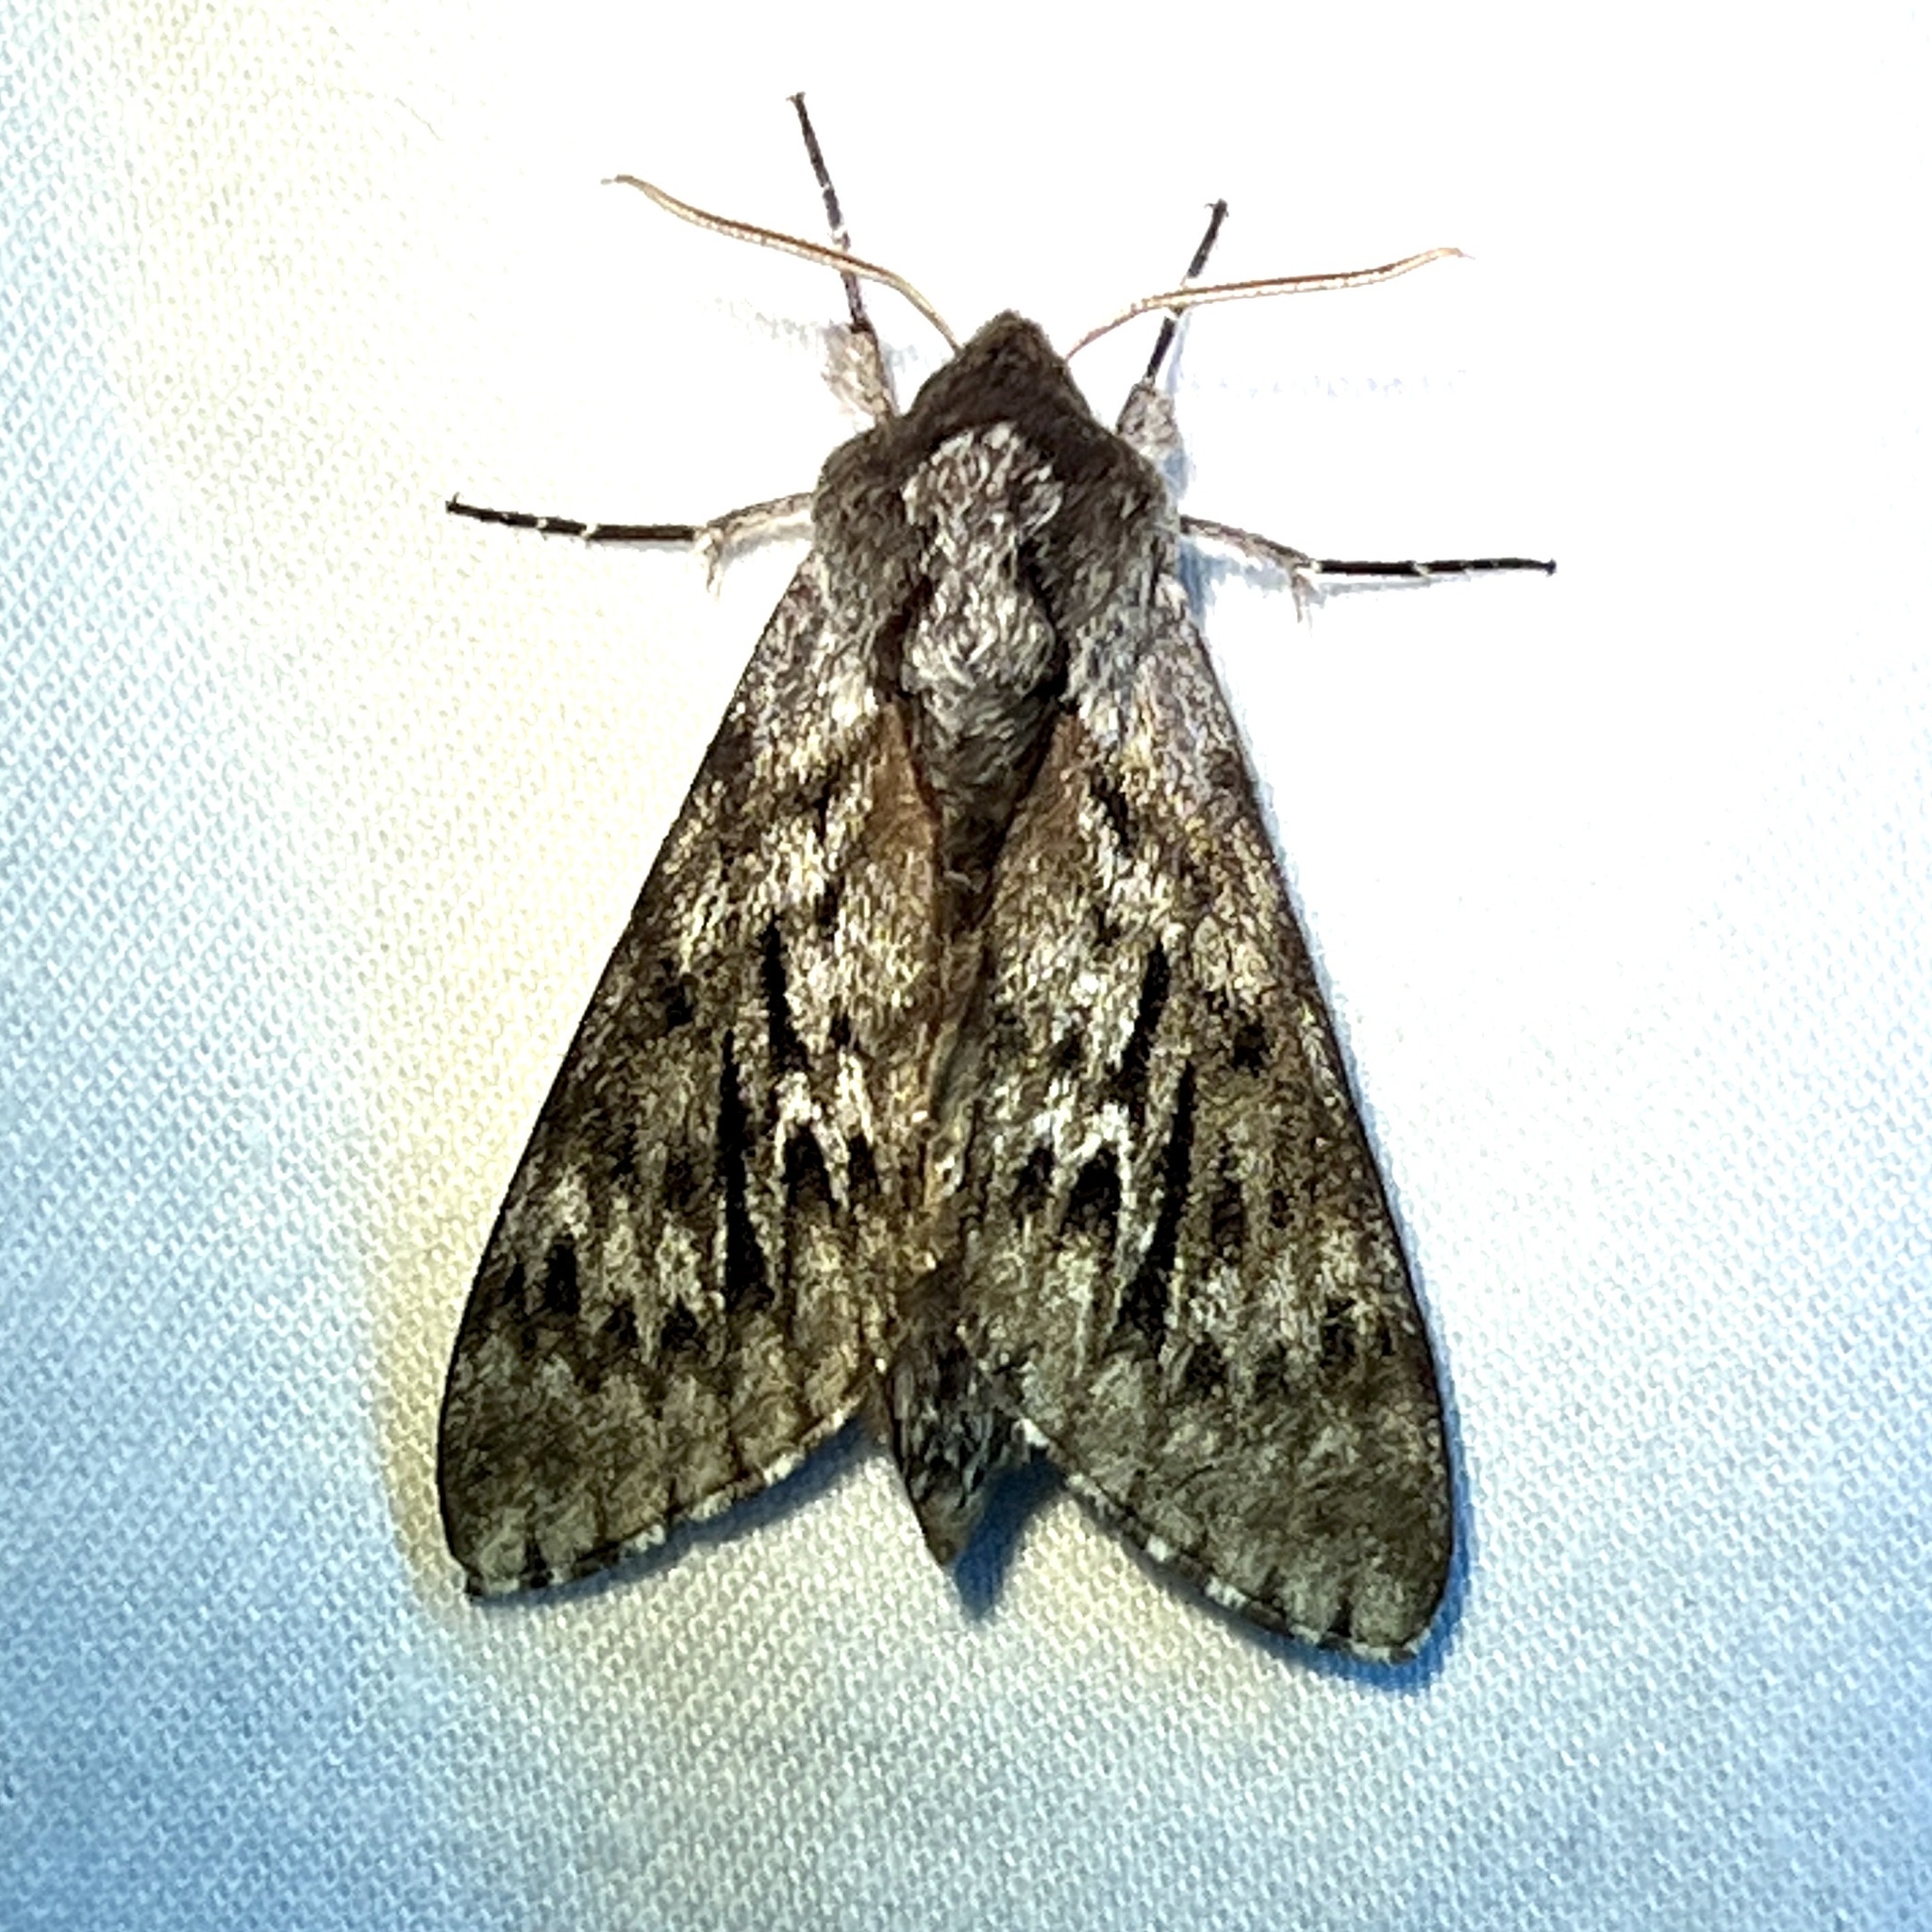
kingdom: Animalia
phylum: Arthropoda
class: Insecta
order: Lepidoptera
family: Sphingidae
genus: Lapara
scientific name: Lapara bombycoides
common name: Northern pine sphinx
